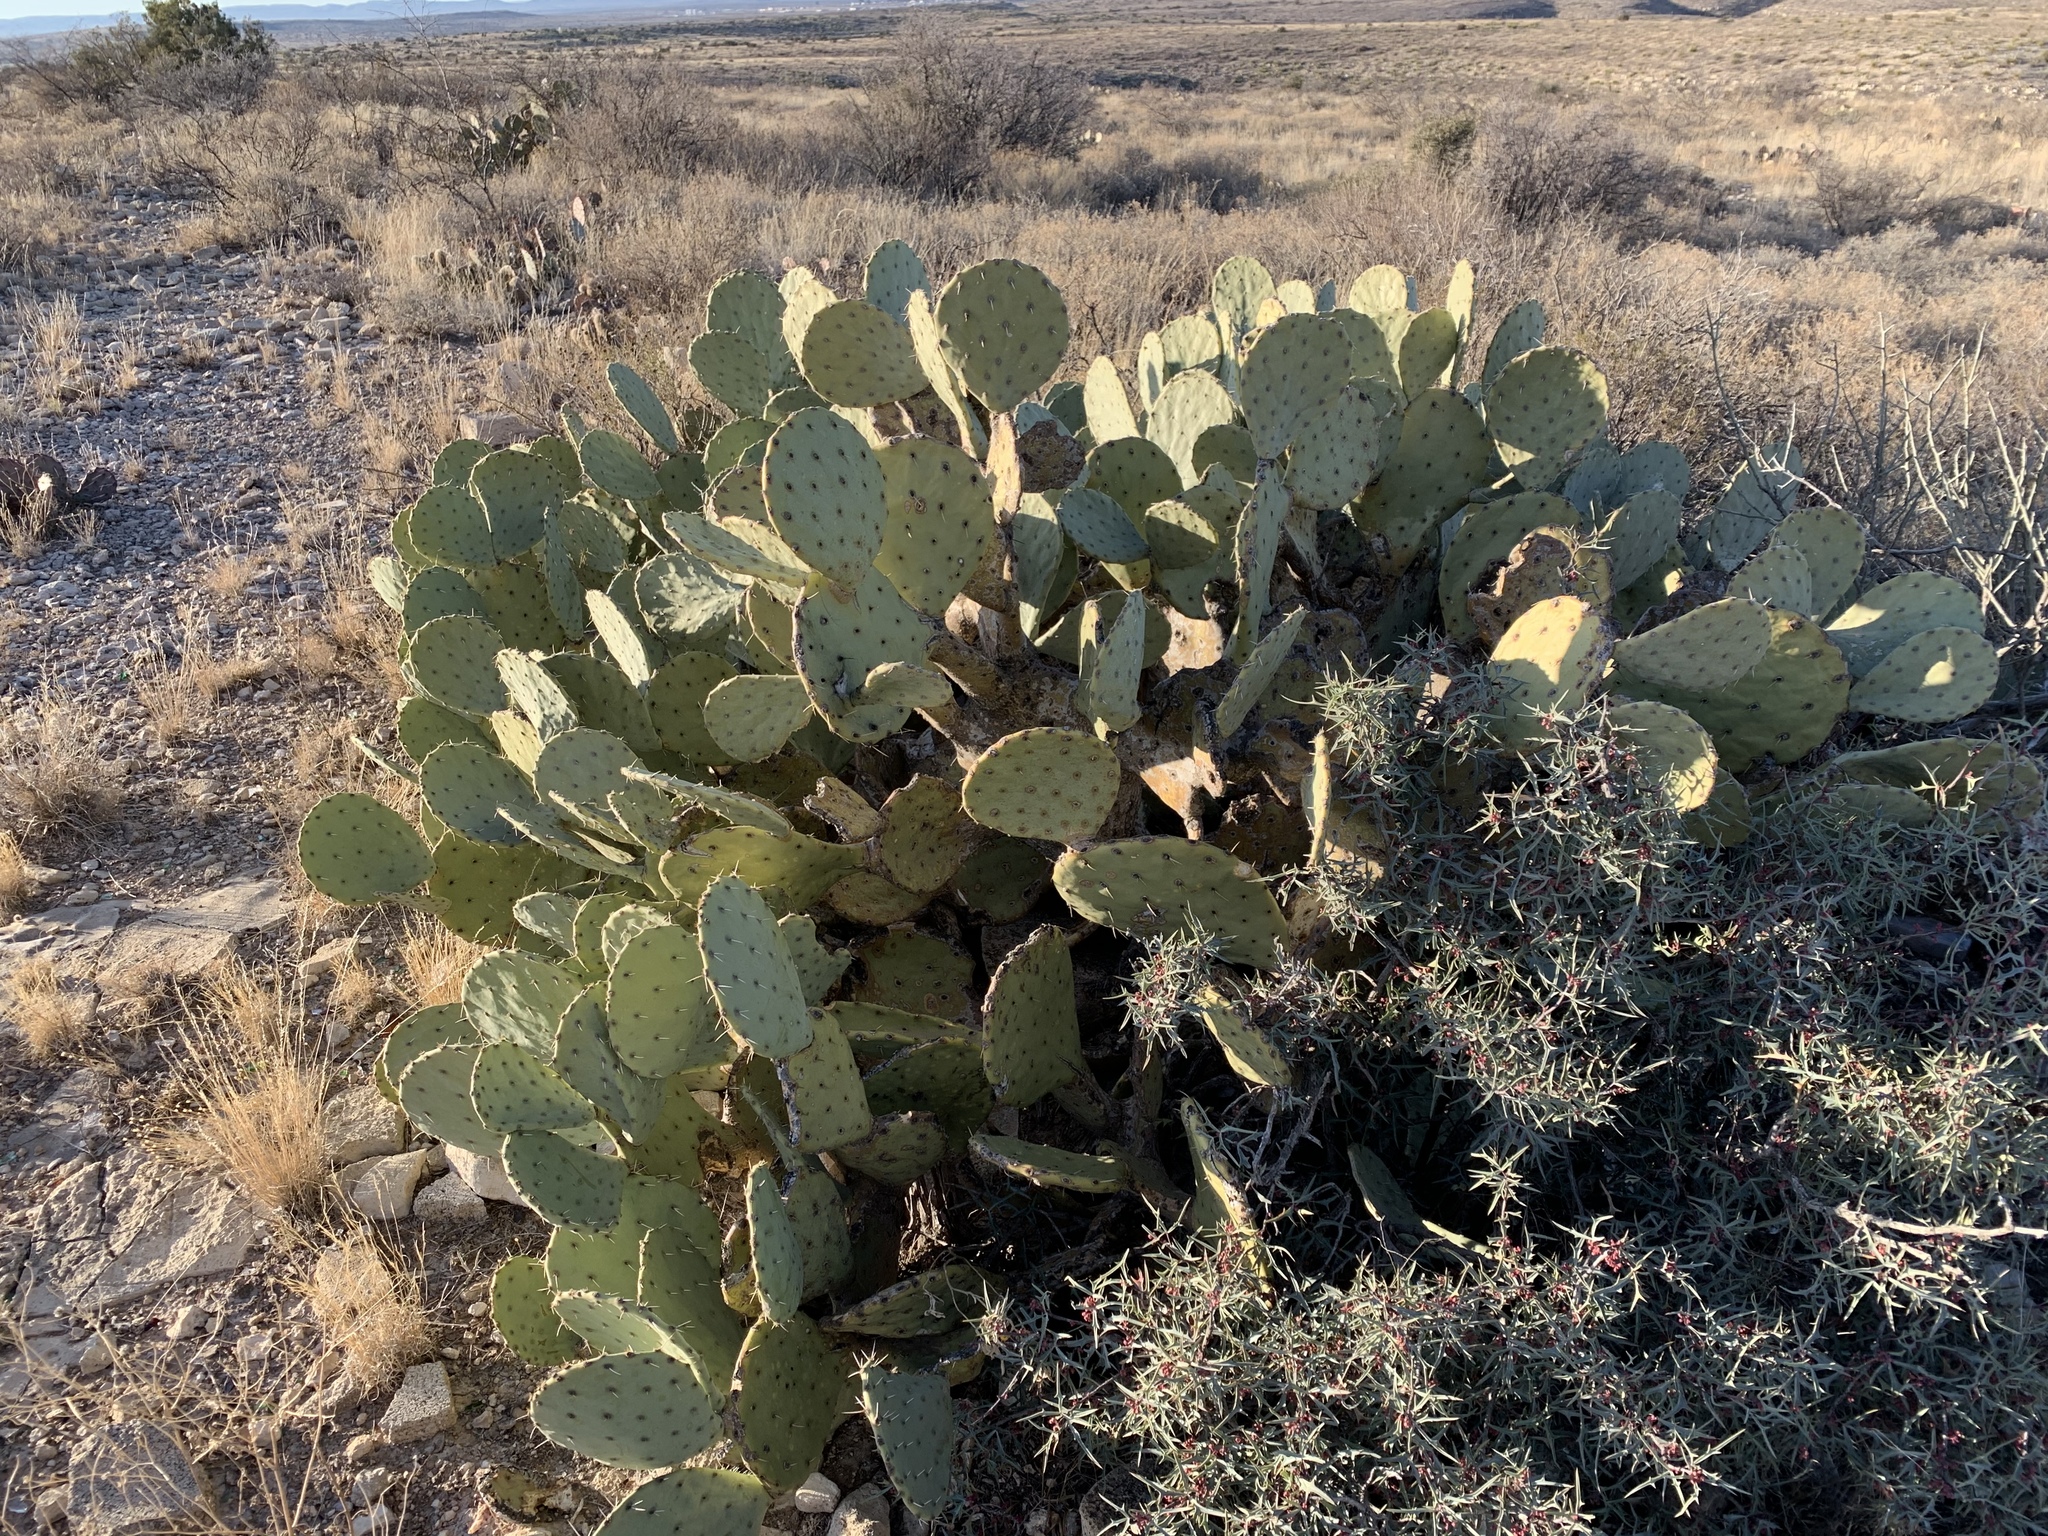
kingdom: Plantae
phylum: Tracheophyta
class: Magnoliopsida
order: Caryophyllales
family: Cactaceae
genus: Opuntia
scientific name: Opuntia orbiculata
